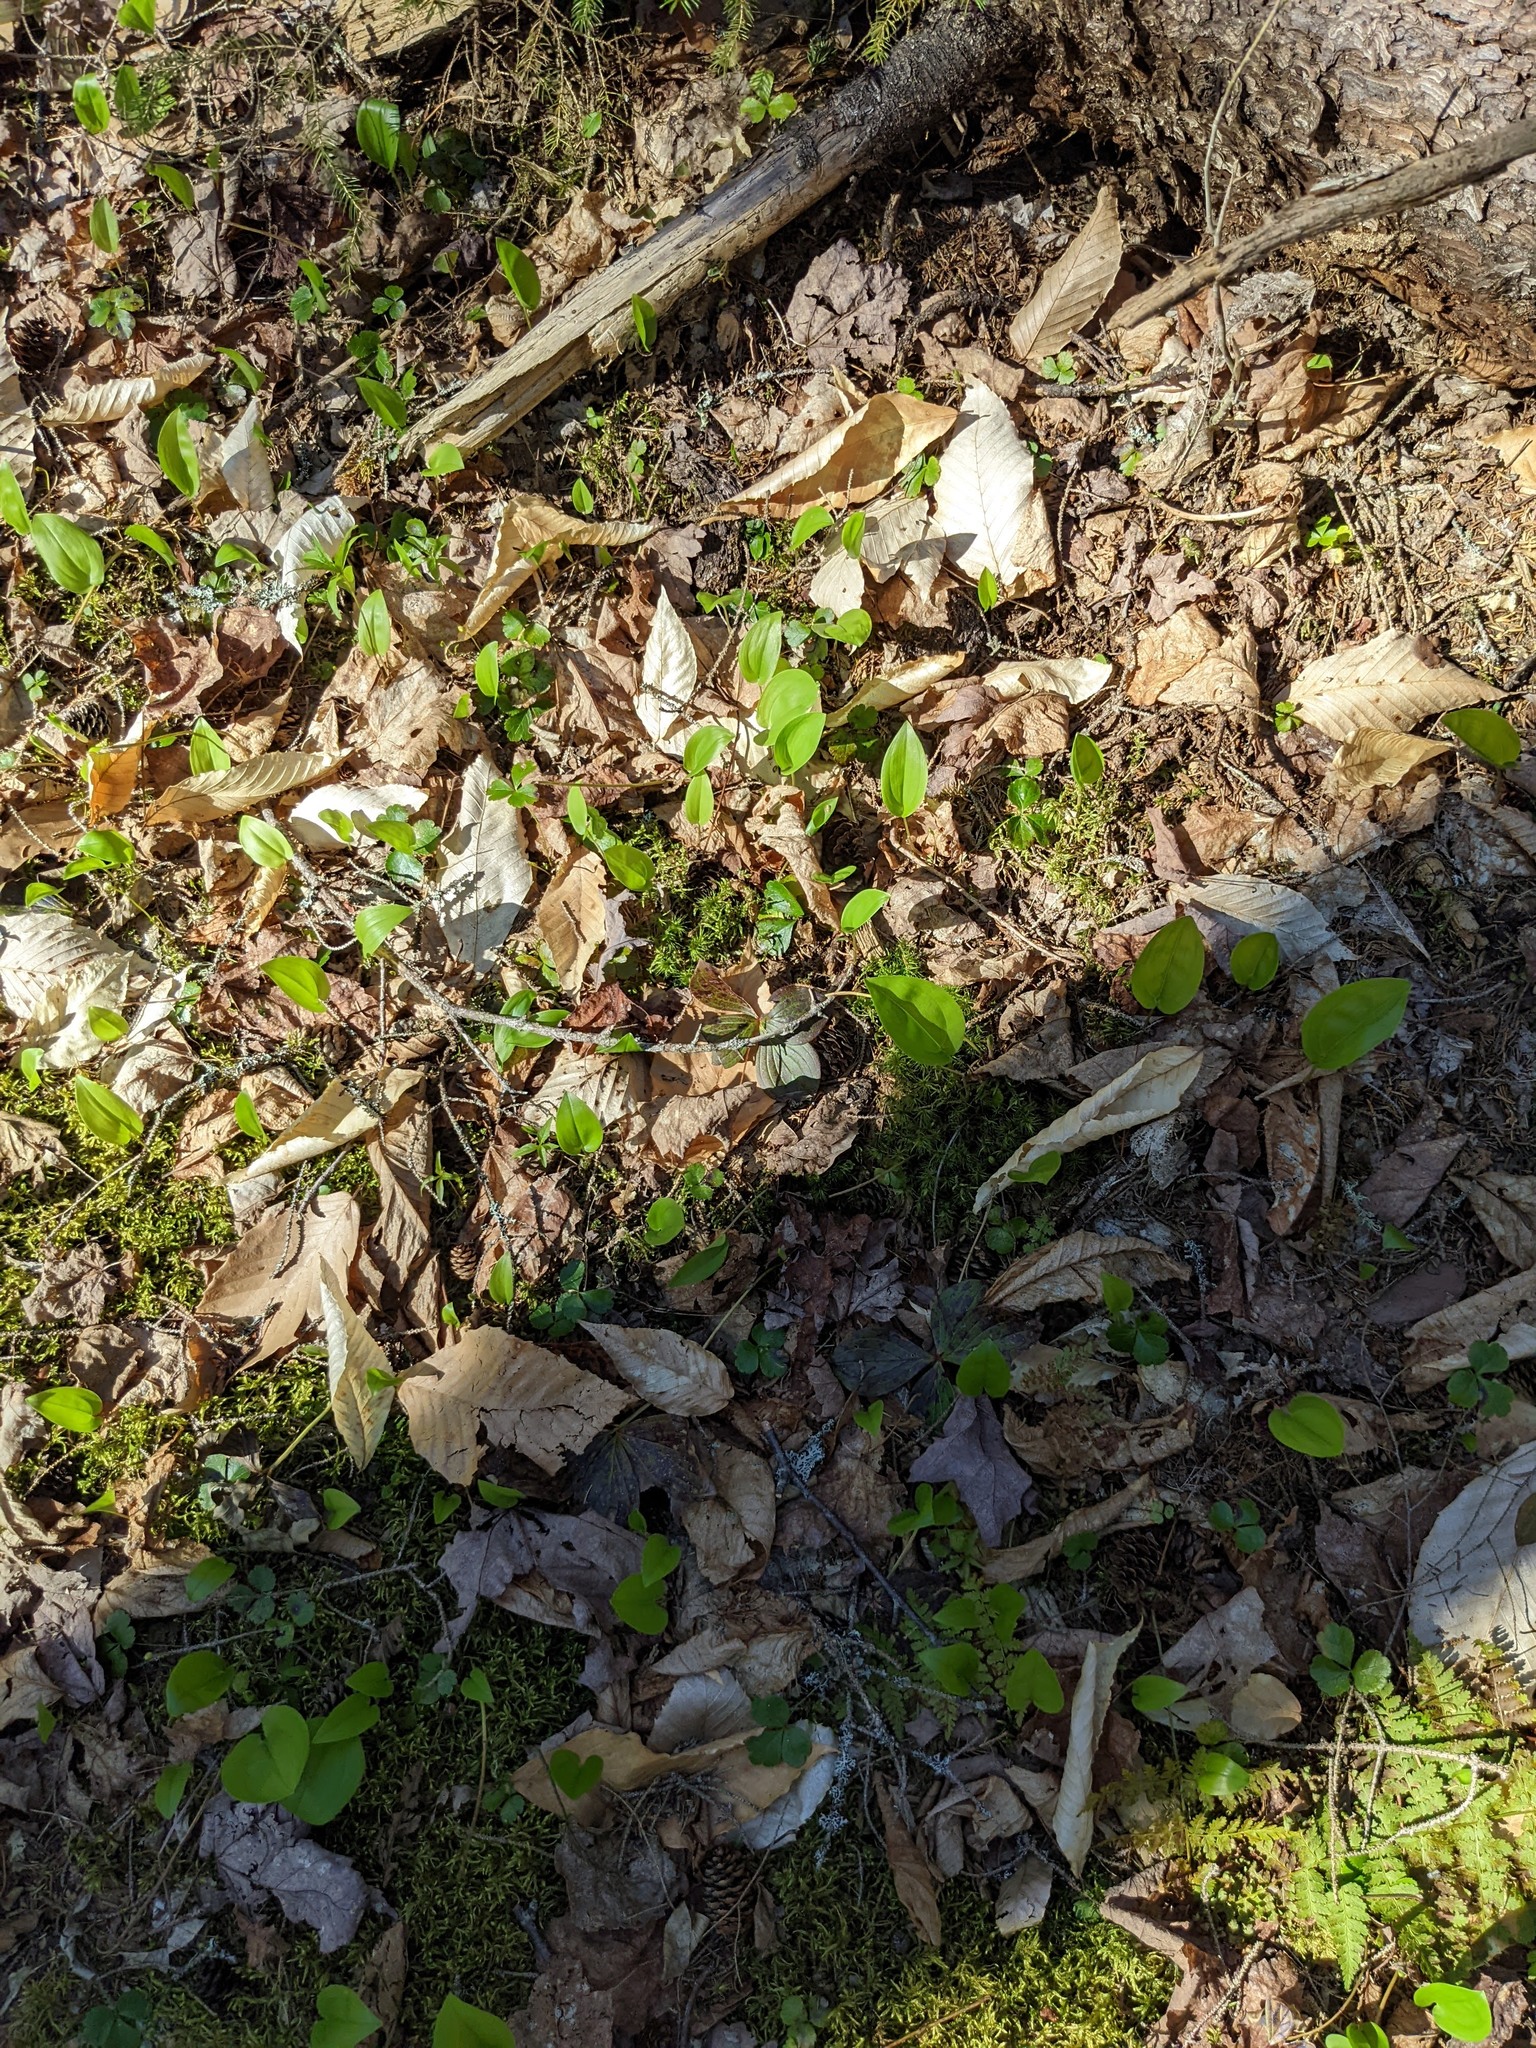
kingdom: Plantae
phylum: Tracheophyta
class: Liliopsida
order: Asparagales
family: Asparagaceae
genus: Maianthemum
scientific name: Maianthemum canadense
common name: False lily-of-the-valley
